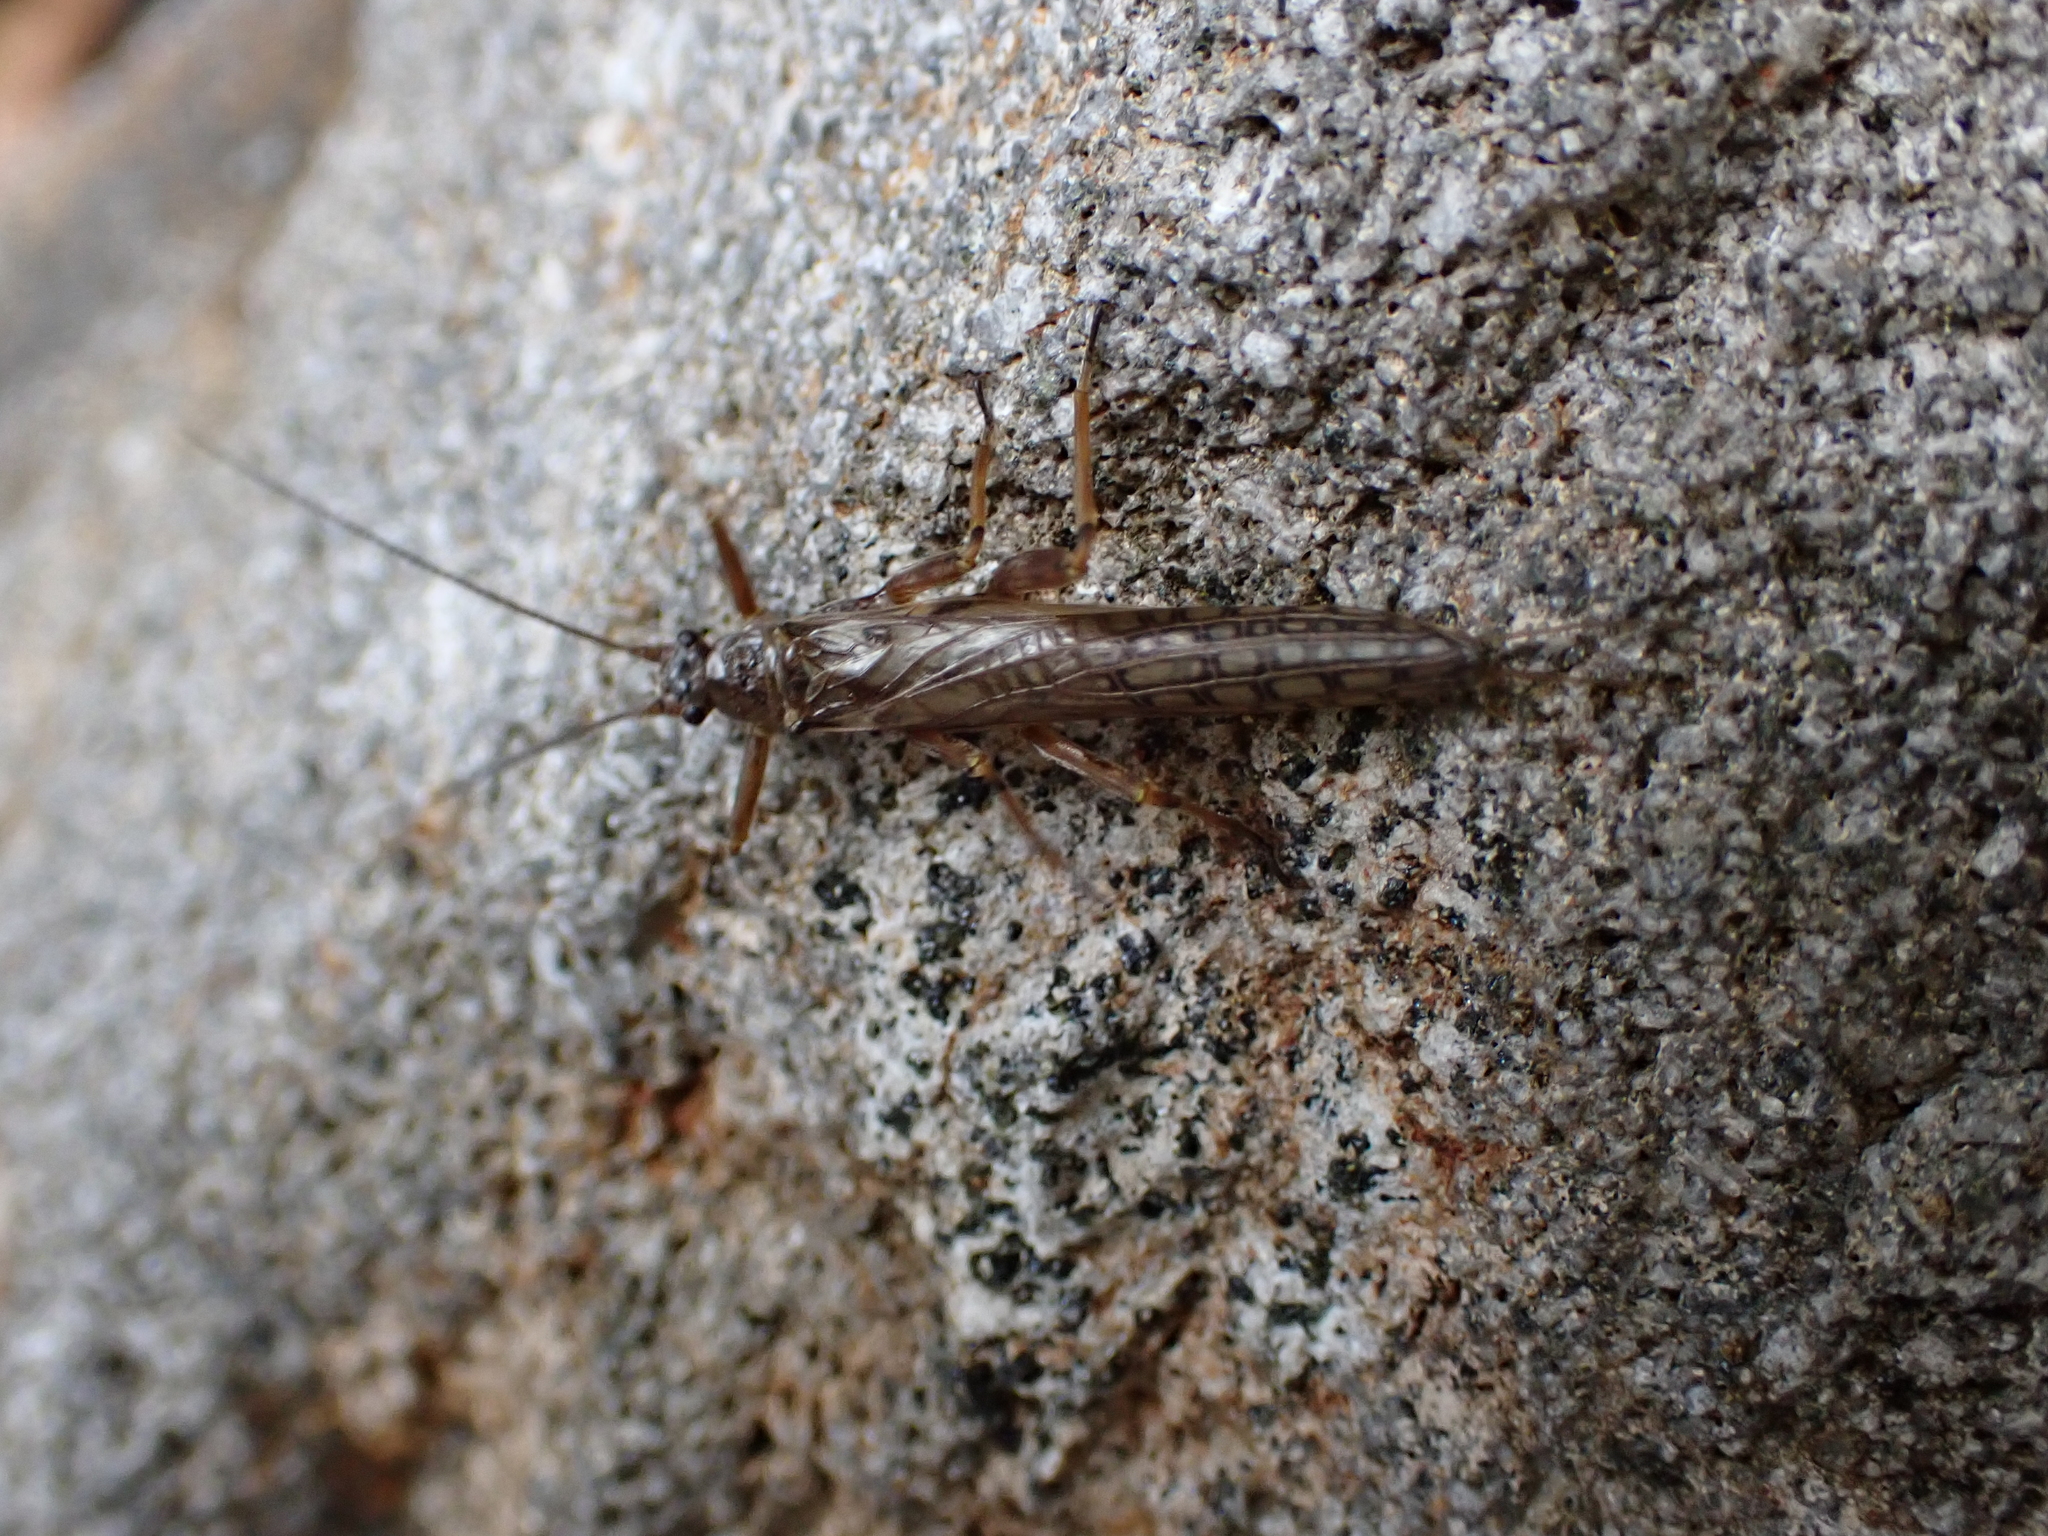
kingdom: Animalia
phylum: Arthropoda
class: Insecta
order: Plecoptera
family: Gripopterygidae
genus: Zelandoperla
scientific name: Zelandoperla fenestrata
